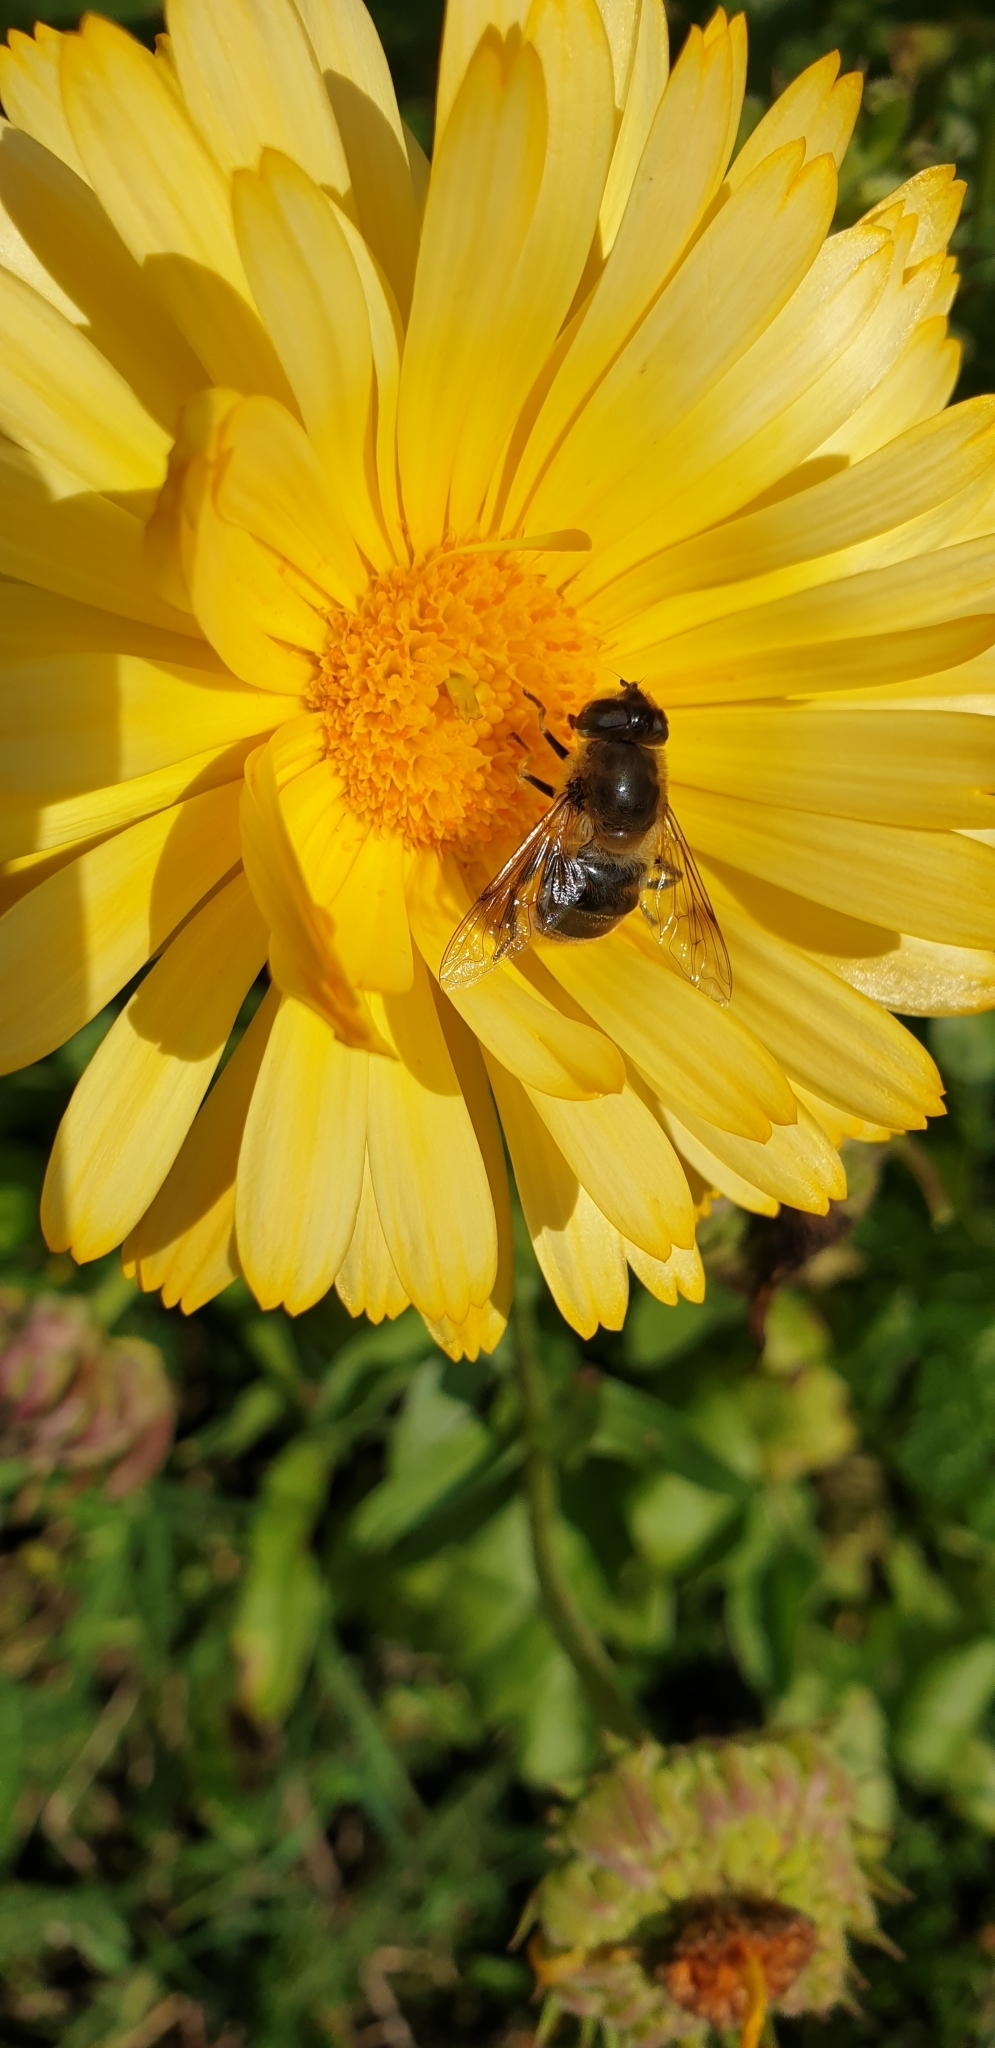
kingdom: Animalia
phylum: Arthropoda
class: Insecta
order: Diptera
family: Syrphidae
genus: Eristalis
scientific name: Eristalis tenax
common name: Drone fly
